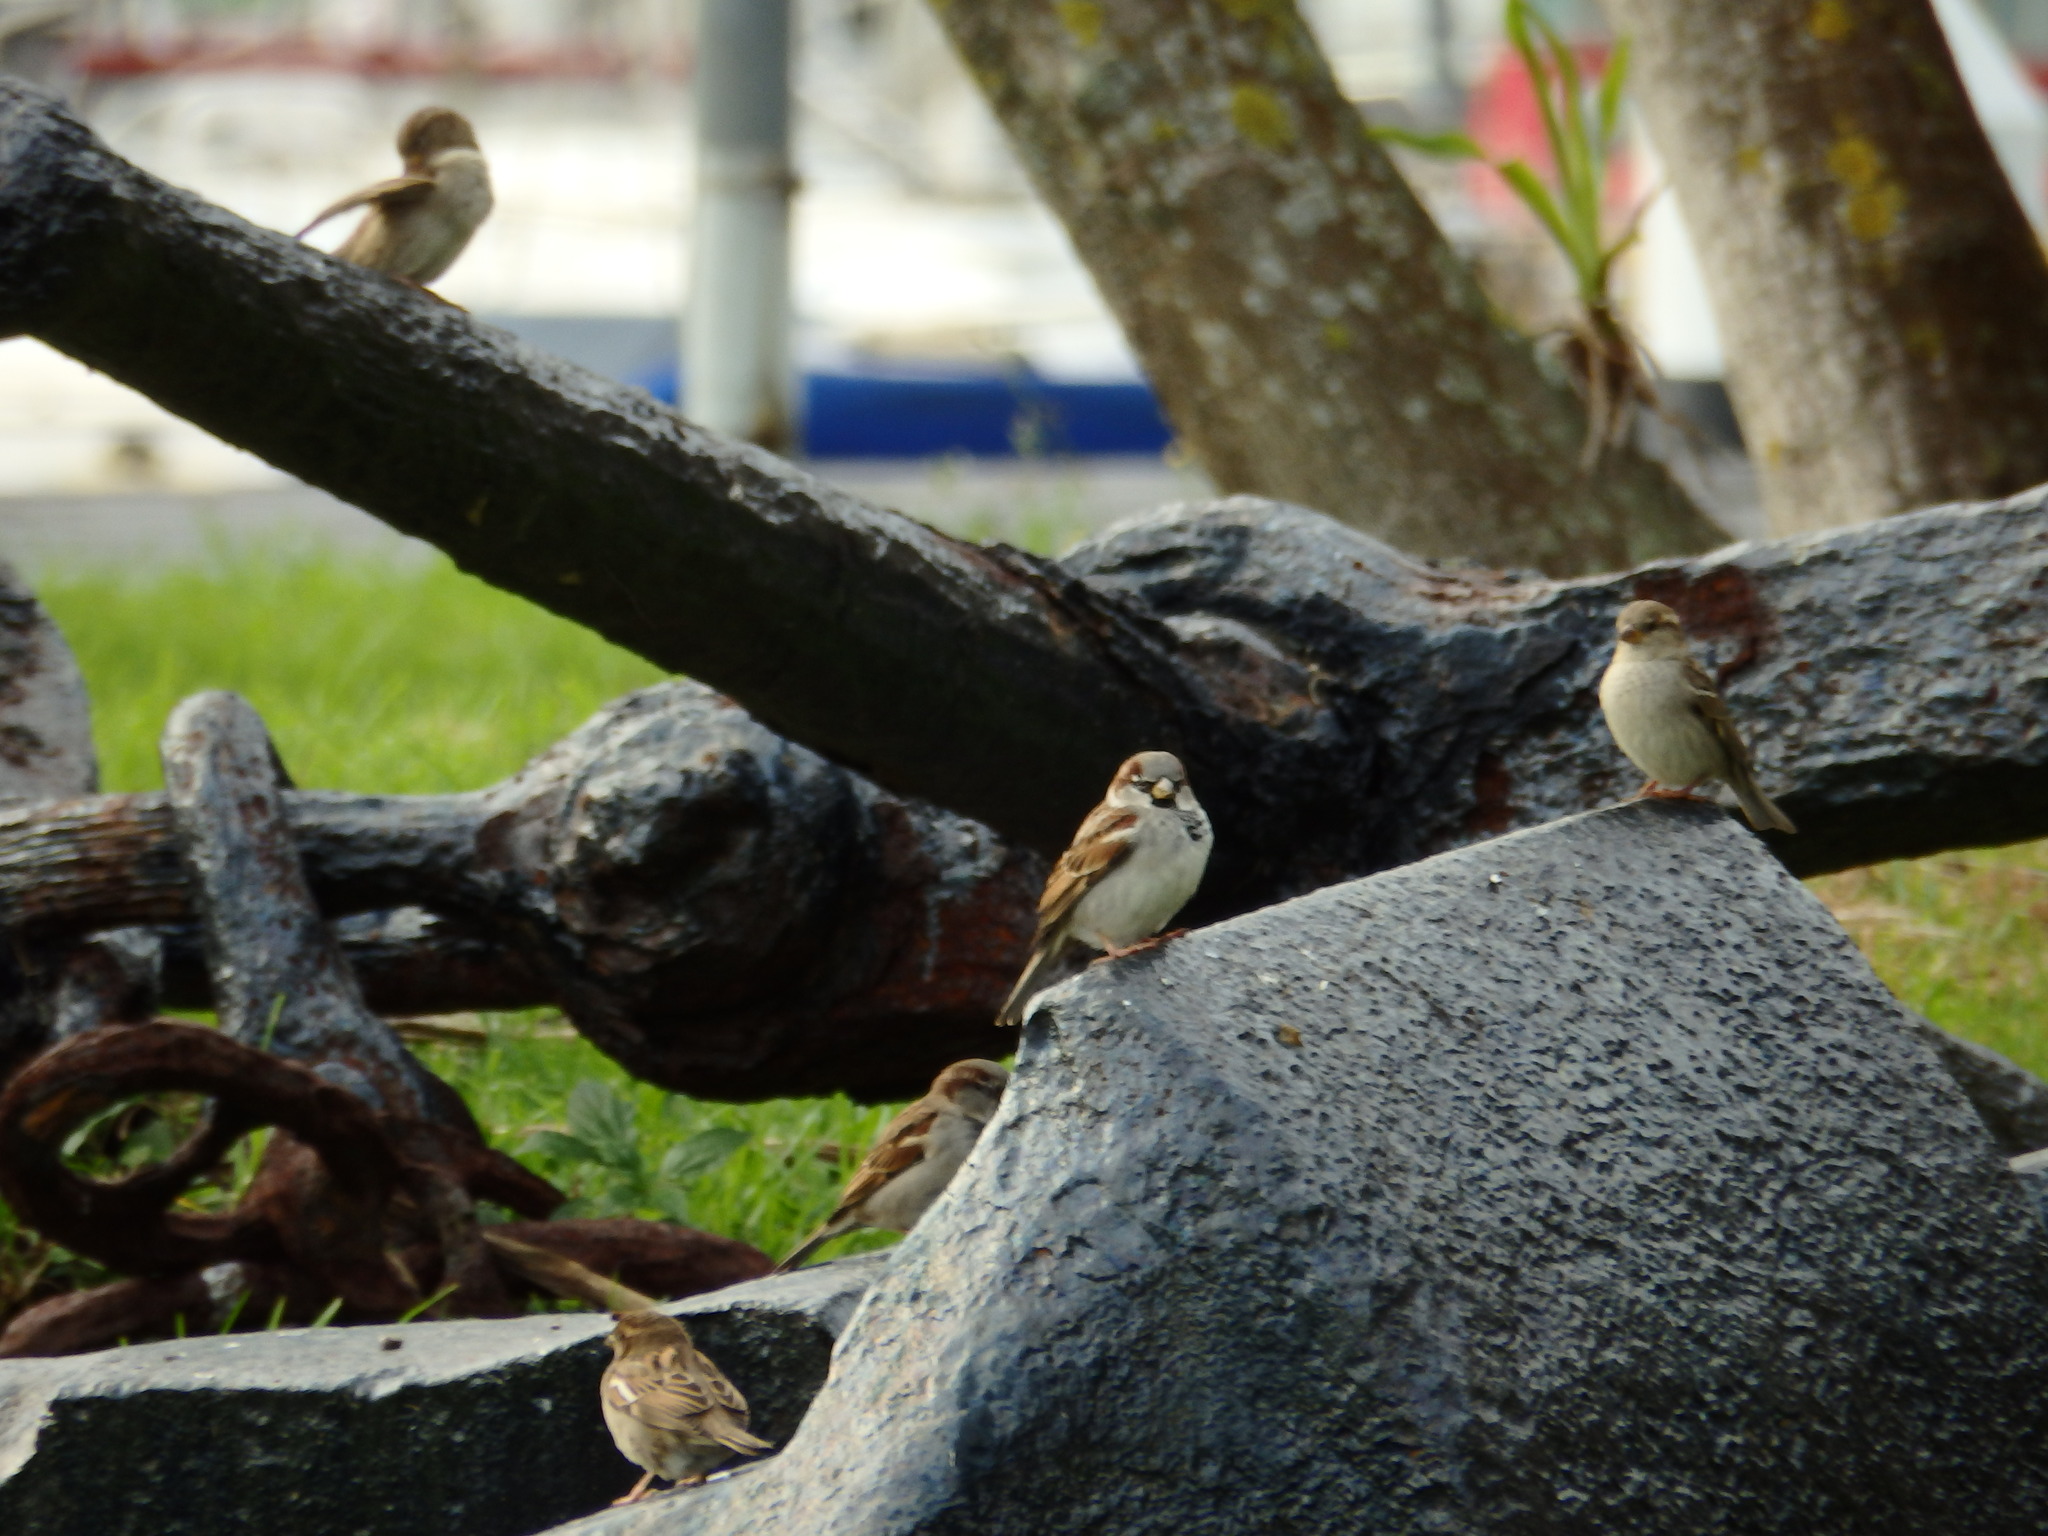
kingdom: Animalia
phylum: Chordata
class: Aves
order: Passeriformes
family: Passeridae
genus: Passer
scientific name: Passer domesticus
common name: House sparrow
